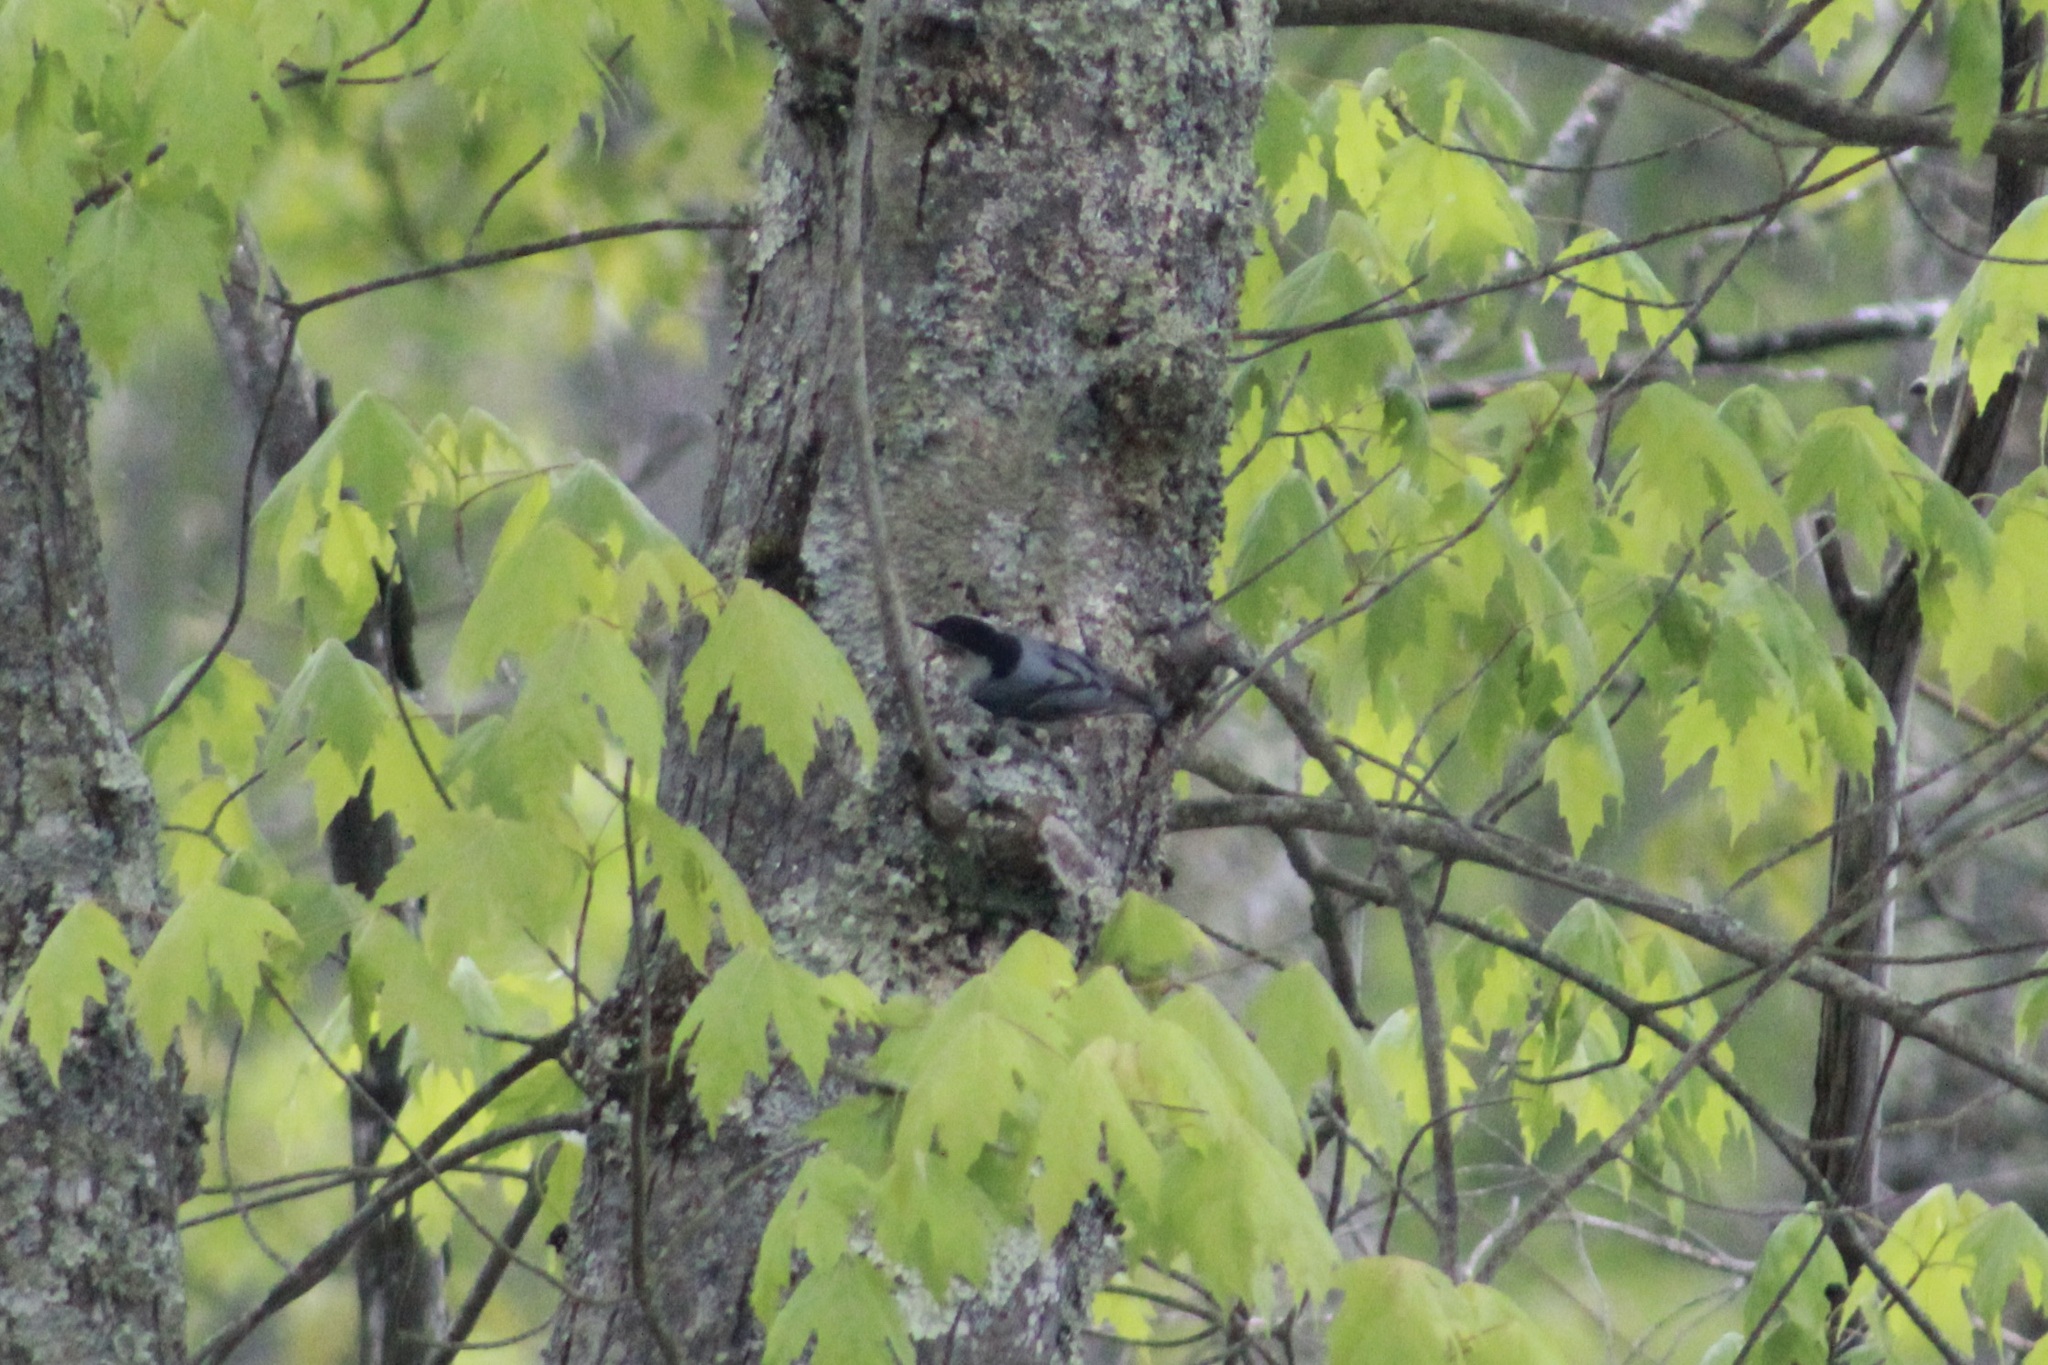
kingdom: Animalia
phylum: Chordata
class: Aves
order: Passeriformes
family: Sittidae
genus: Sitta
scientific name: Sitta carolinensis
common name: White-breasted nuthatch
